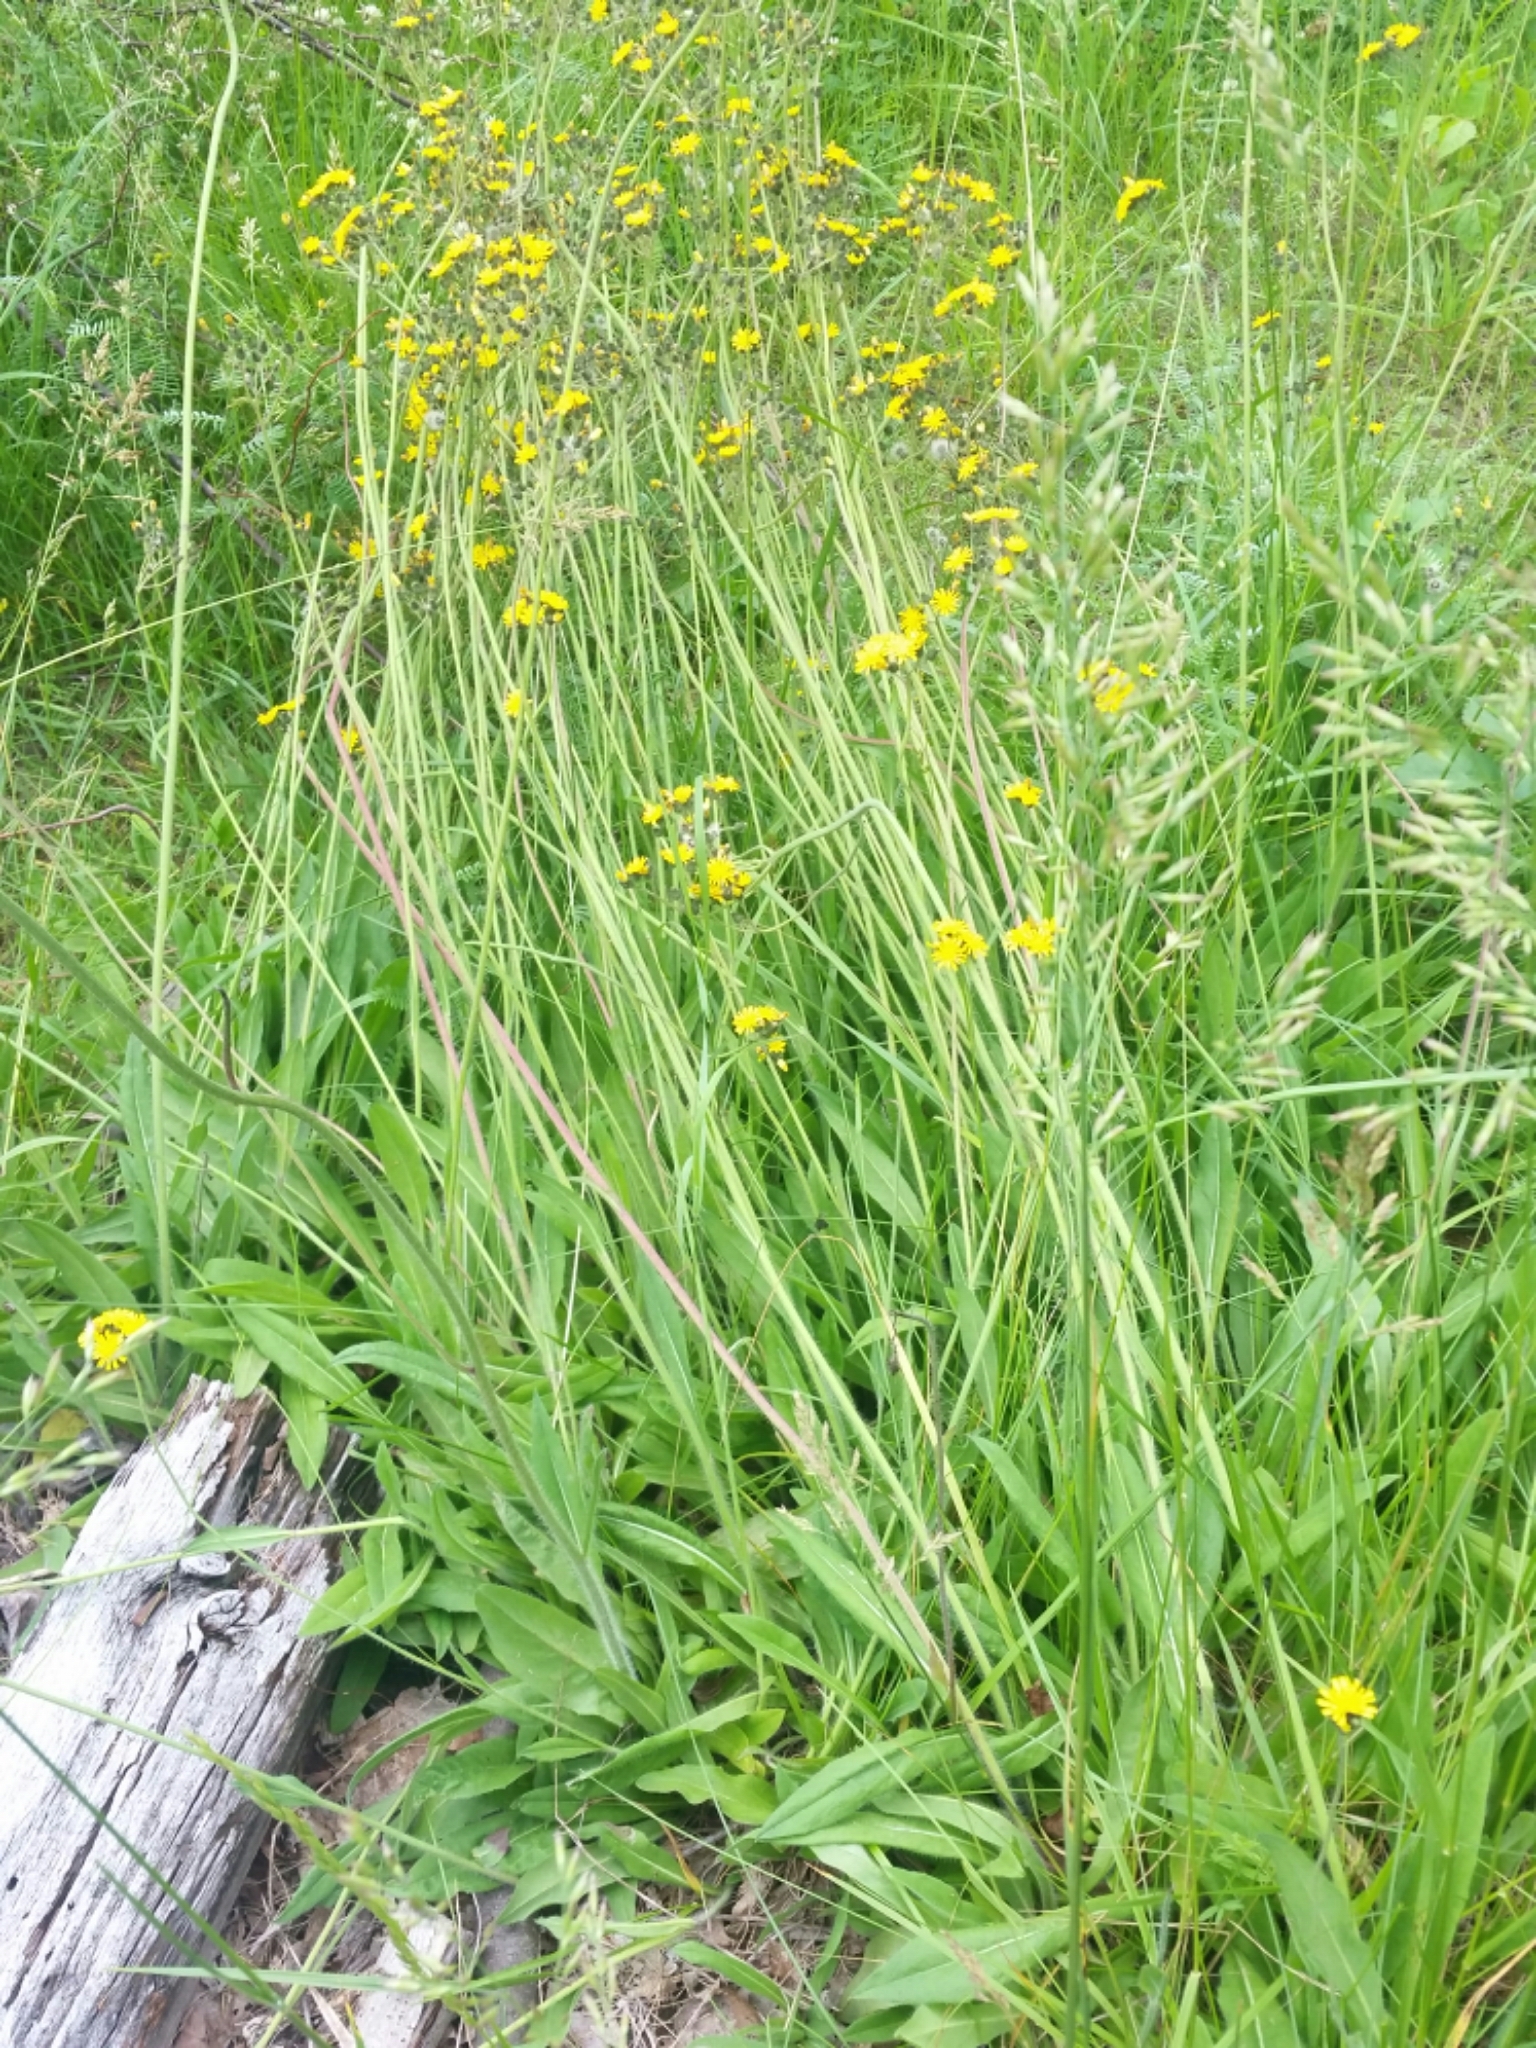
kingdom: Plantae
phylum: Tracheophyta
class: Magnoliopsida
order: Asterales
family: Asteraceae
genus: Pilosella
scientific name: Pilosella caespitosa
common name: Yellow fox-and-cubs
